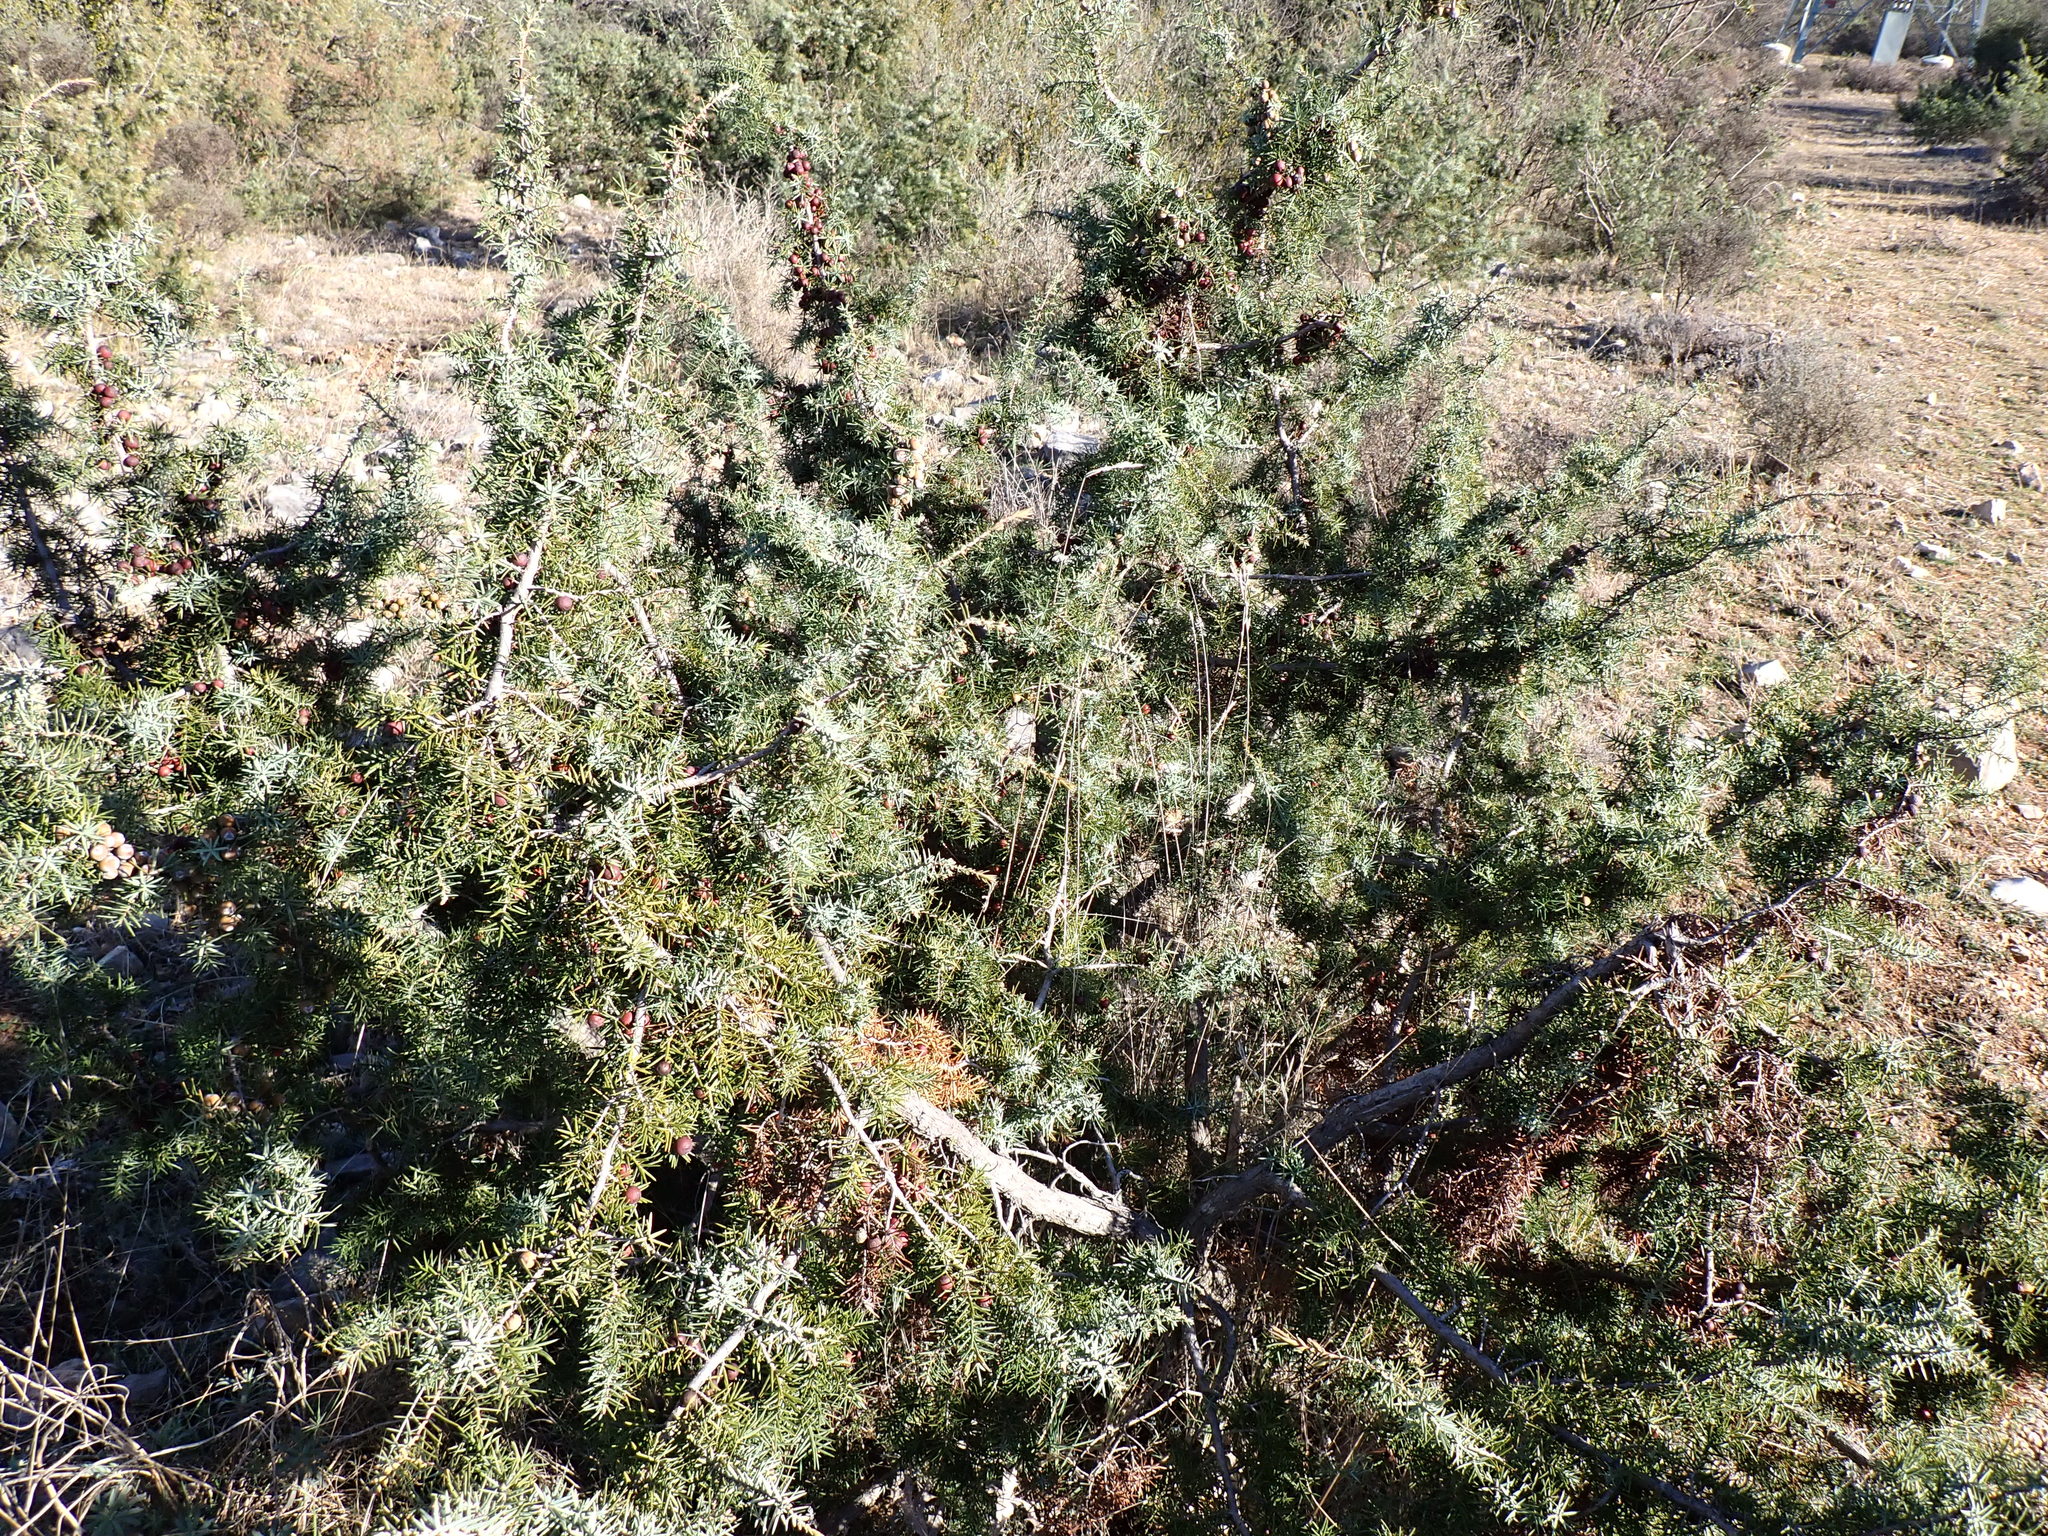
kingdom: Plantae
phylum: Tracheophyta
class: Pinopsida
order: Pinales
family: Cupressaceae
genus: Juniperus
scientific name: Juniperus oxycedrus
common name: Prickly juniper
